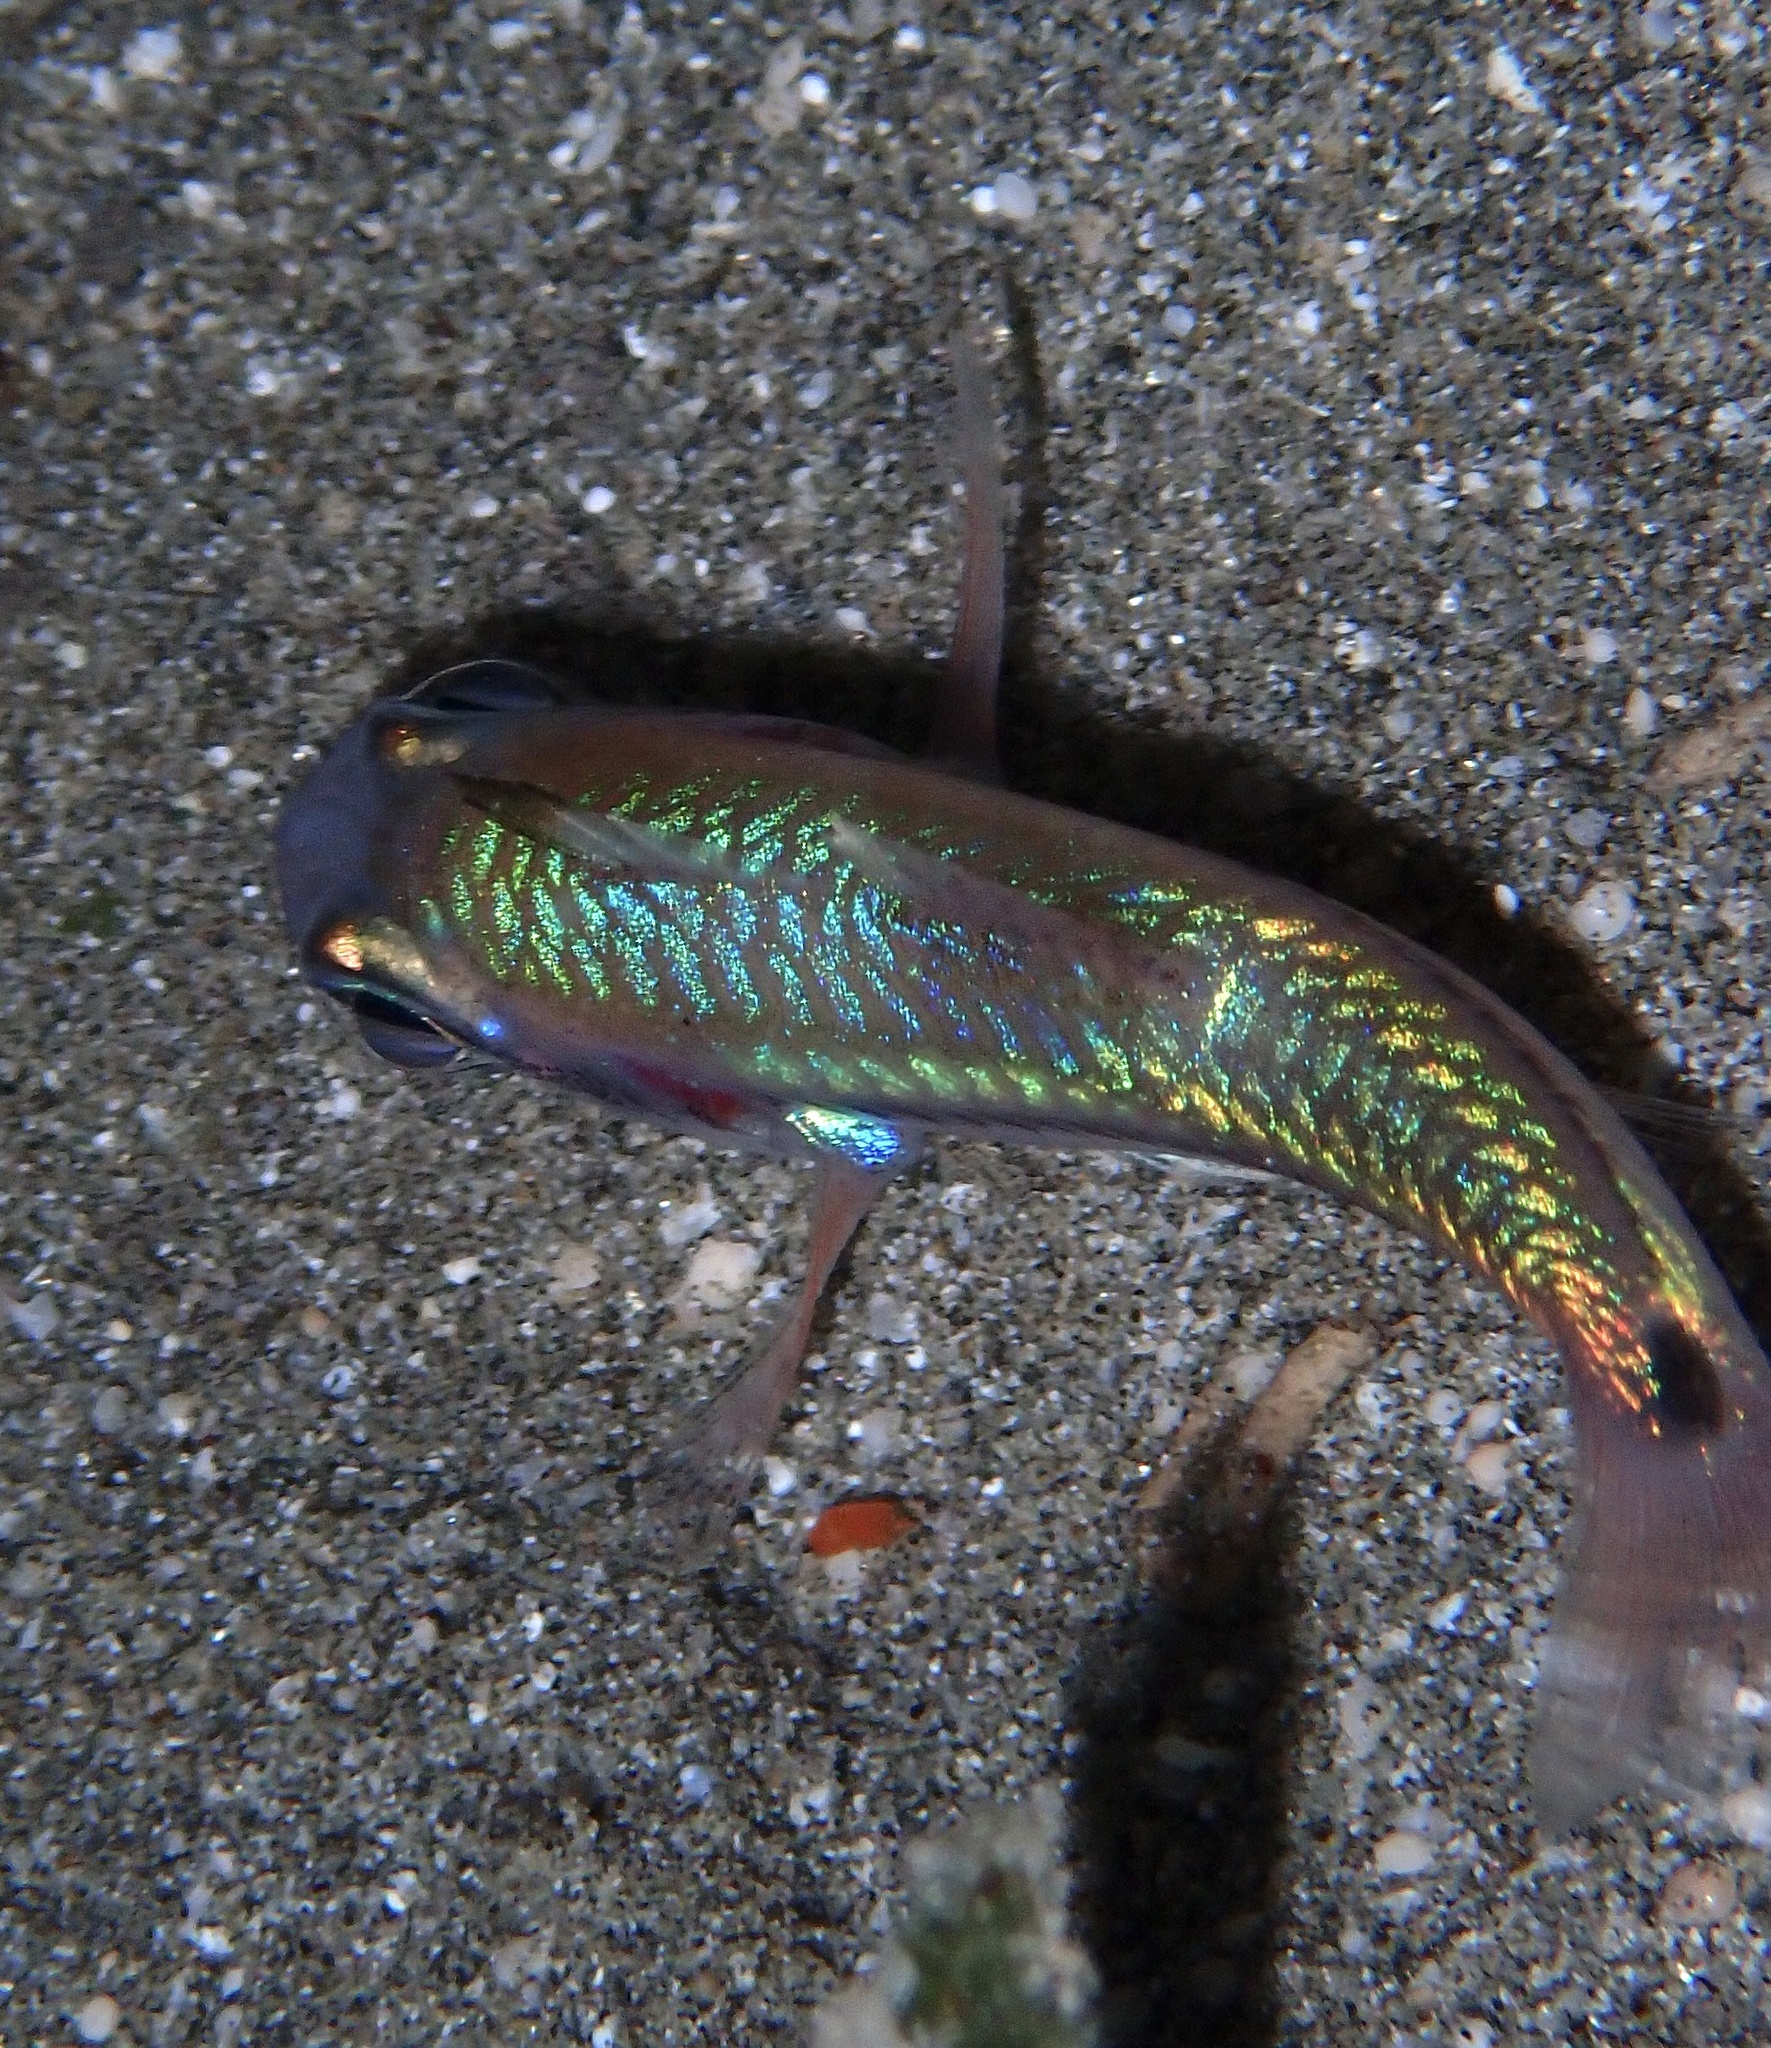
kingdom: Animalia
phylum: Chordata
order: Perciformes
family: Apogonidae
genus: Pristiapogon
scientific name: Pristiapogon exostigma
